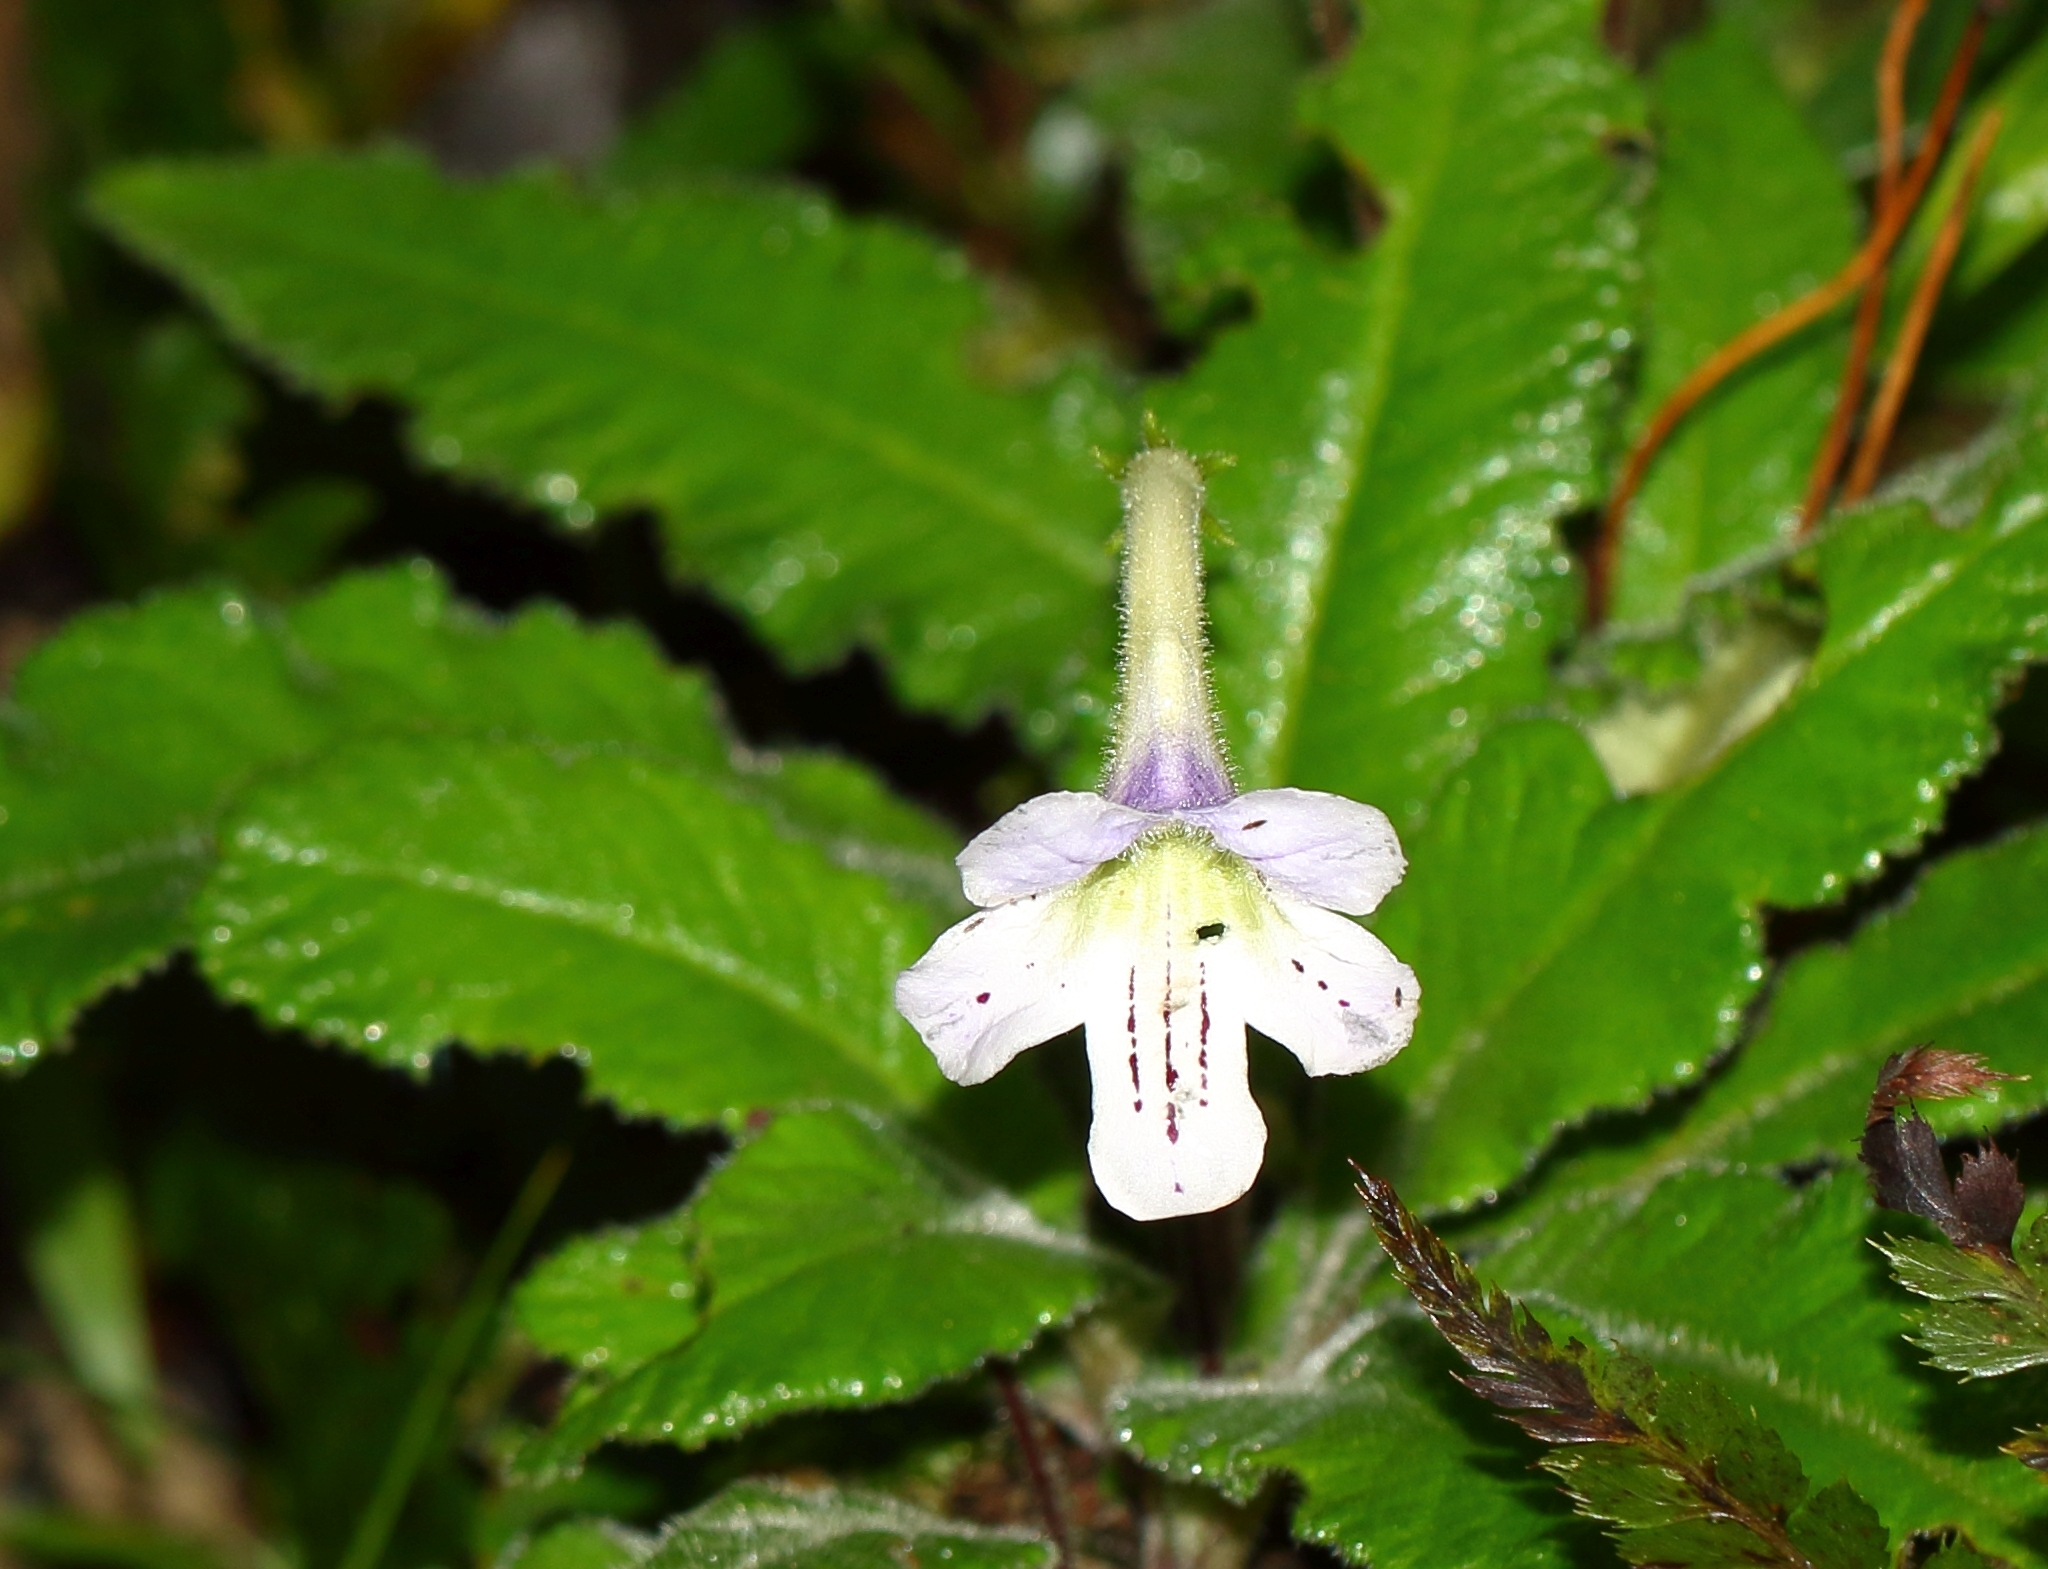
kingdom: Plantae
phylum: Tracheophyta
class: Magnoliopsida
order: Lamiales
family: Gesneriaceae
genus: Streptocarpus
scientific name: Streptocarpus gardenii
